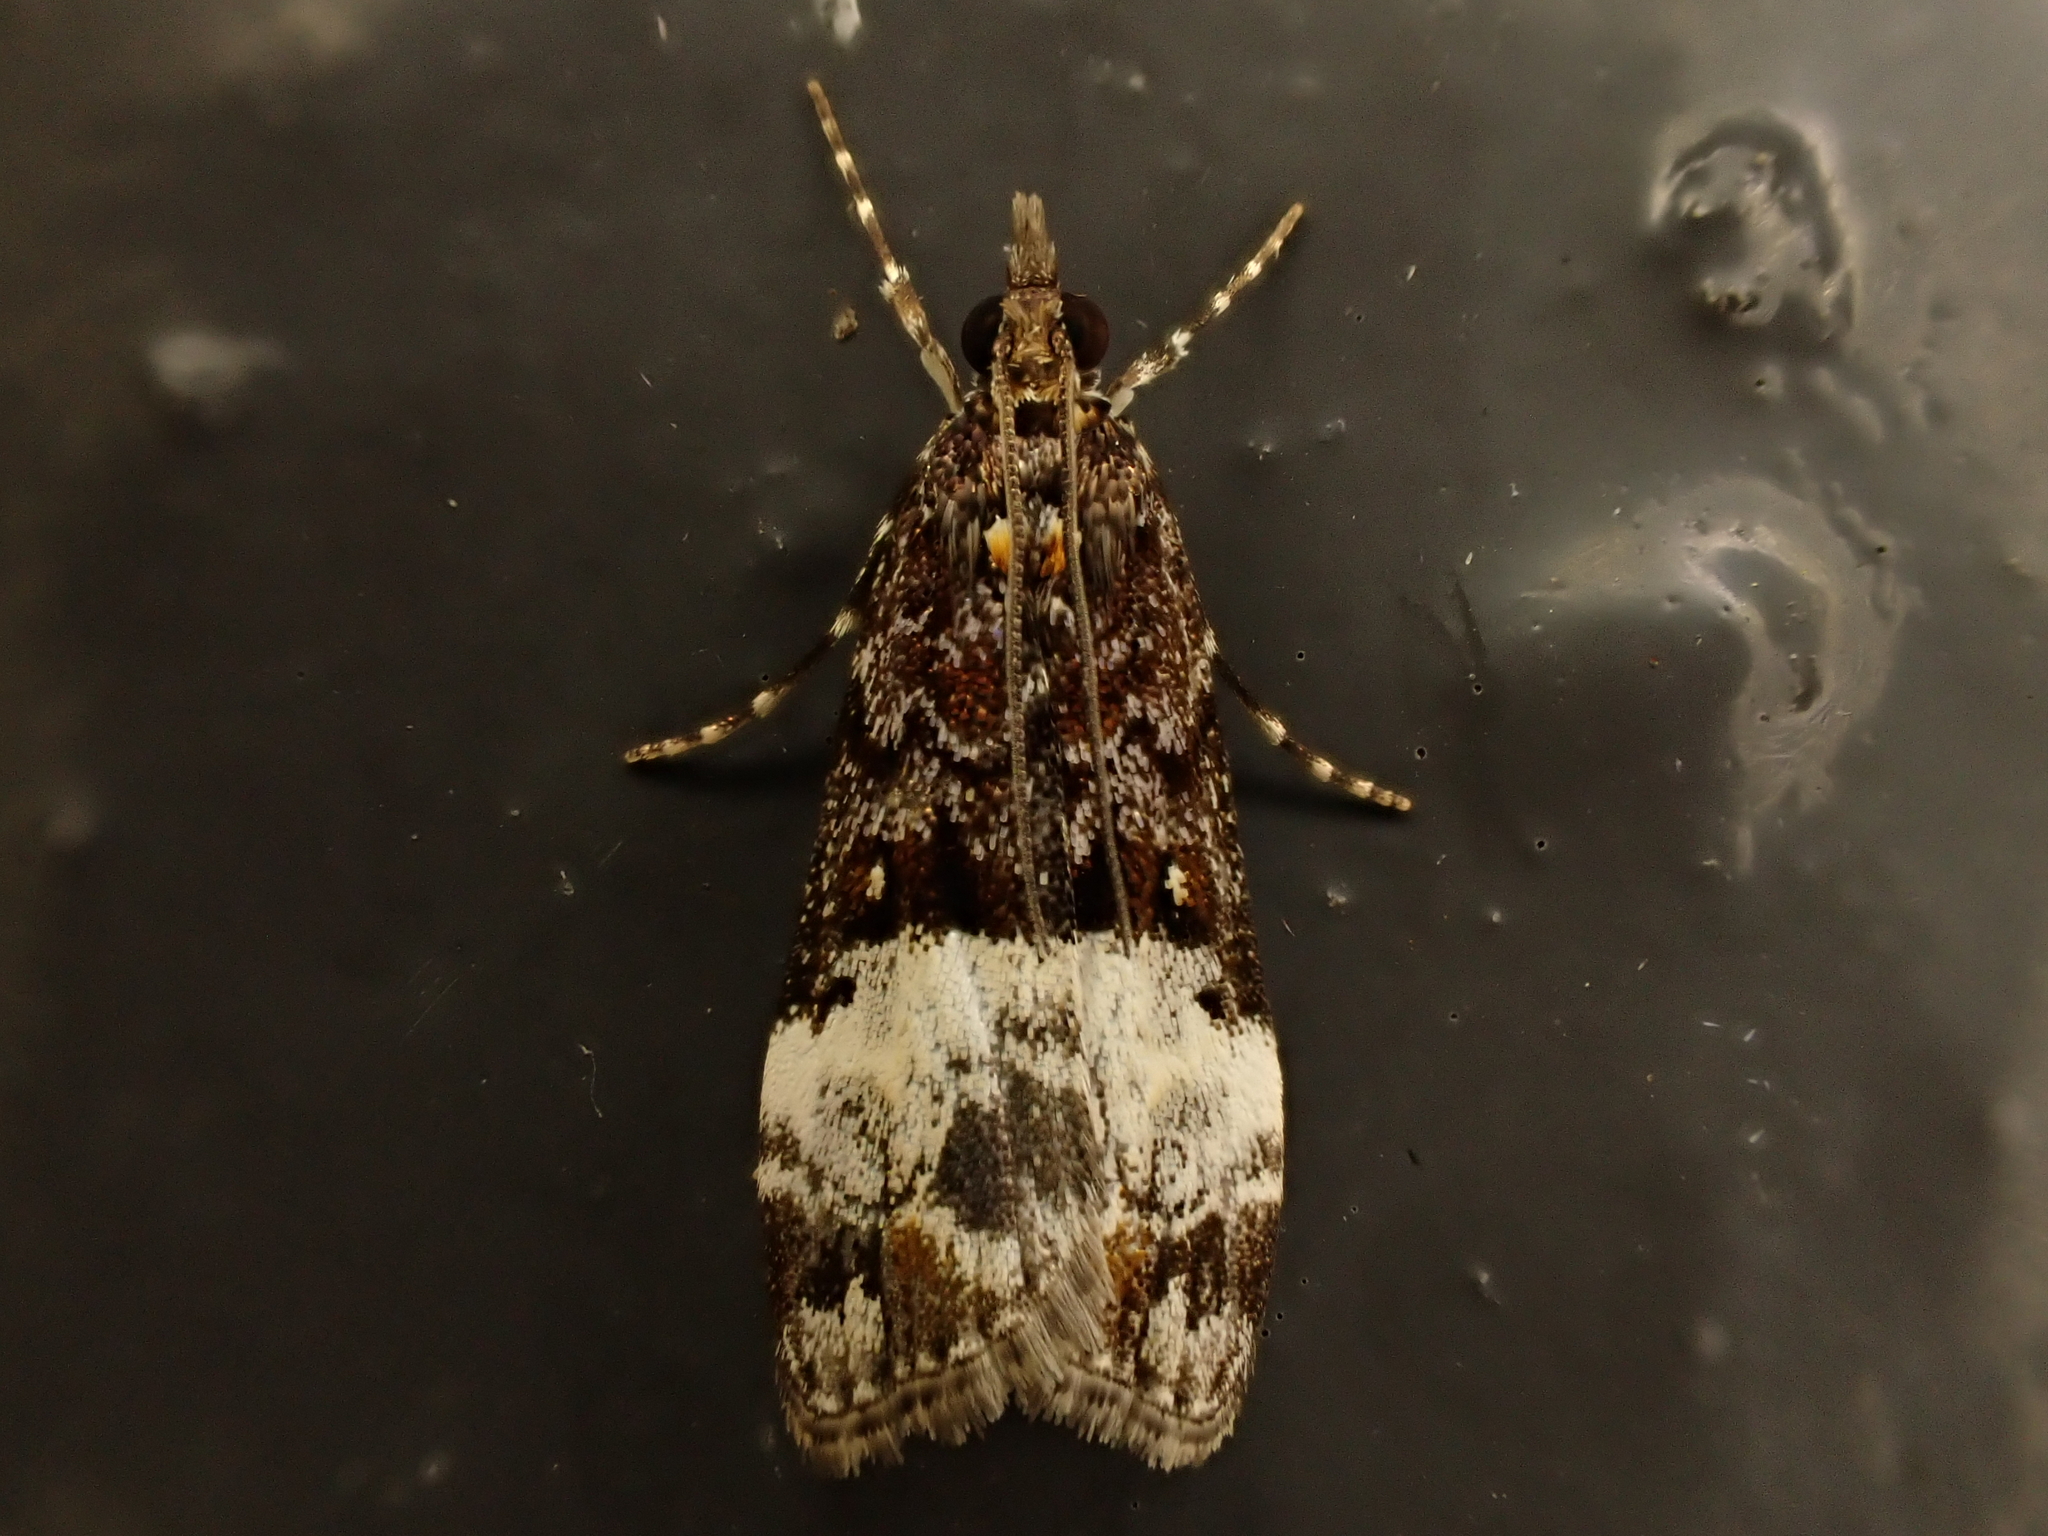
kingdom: Animalia
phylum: Arthropoda
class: Insecta
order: Lepidoptera
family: Crambidae
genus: Scoparia
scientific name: Scoparia minusculalis
